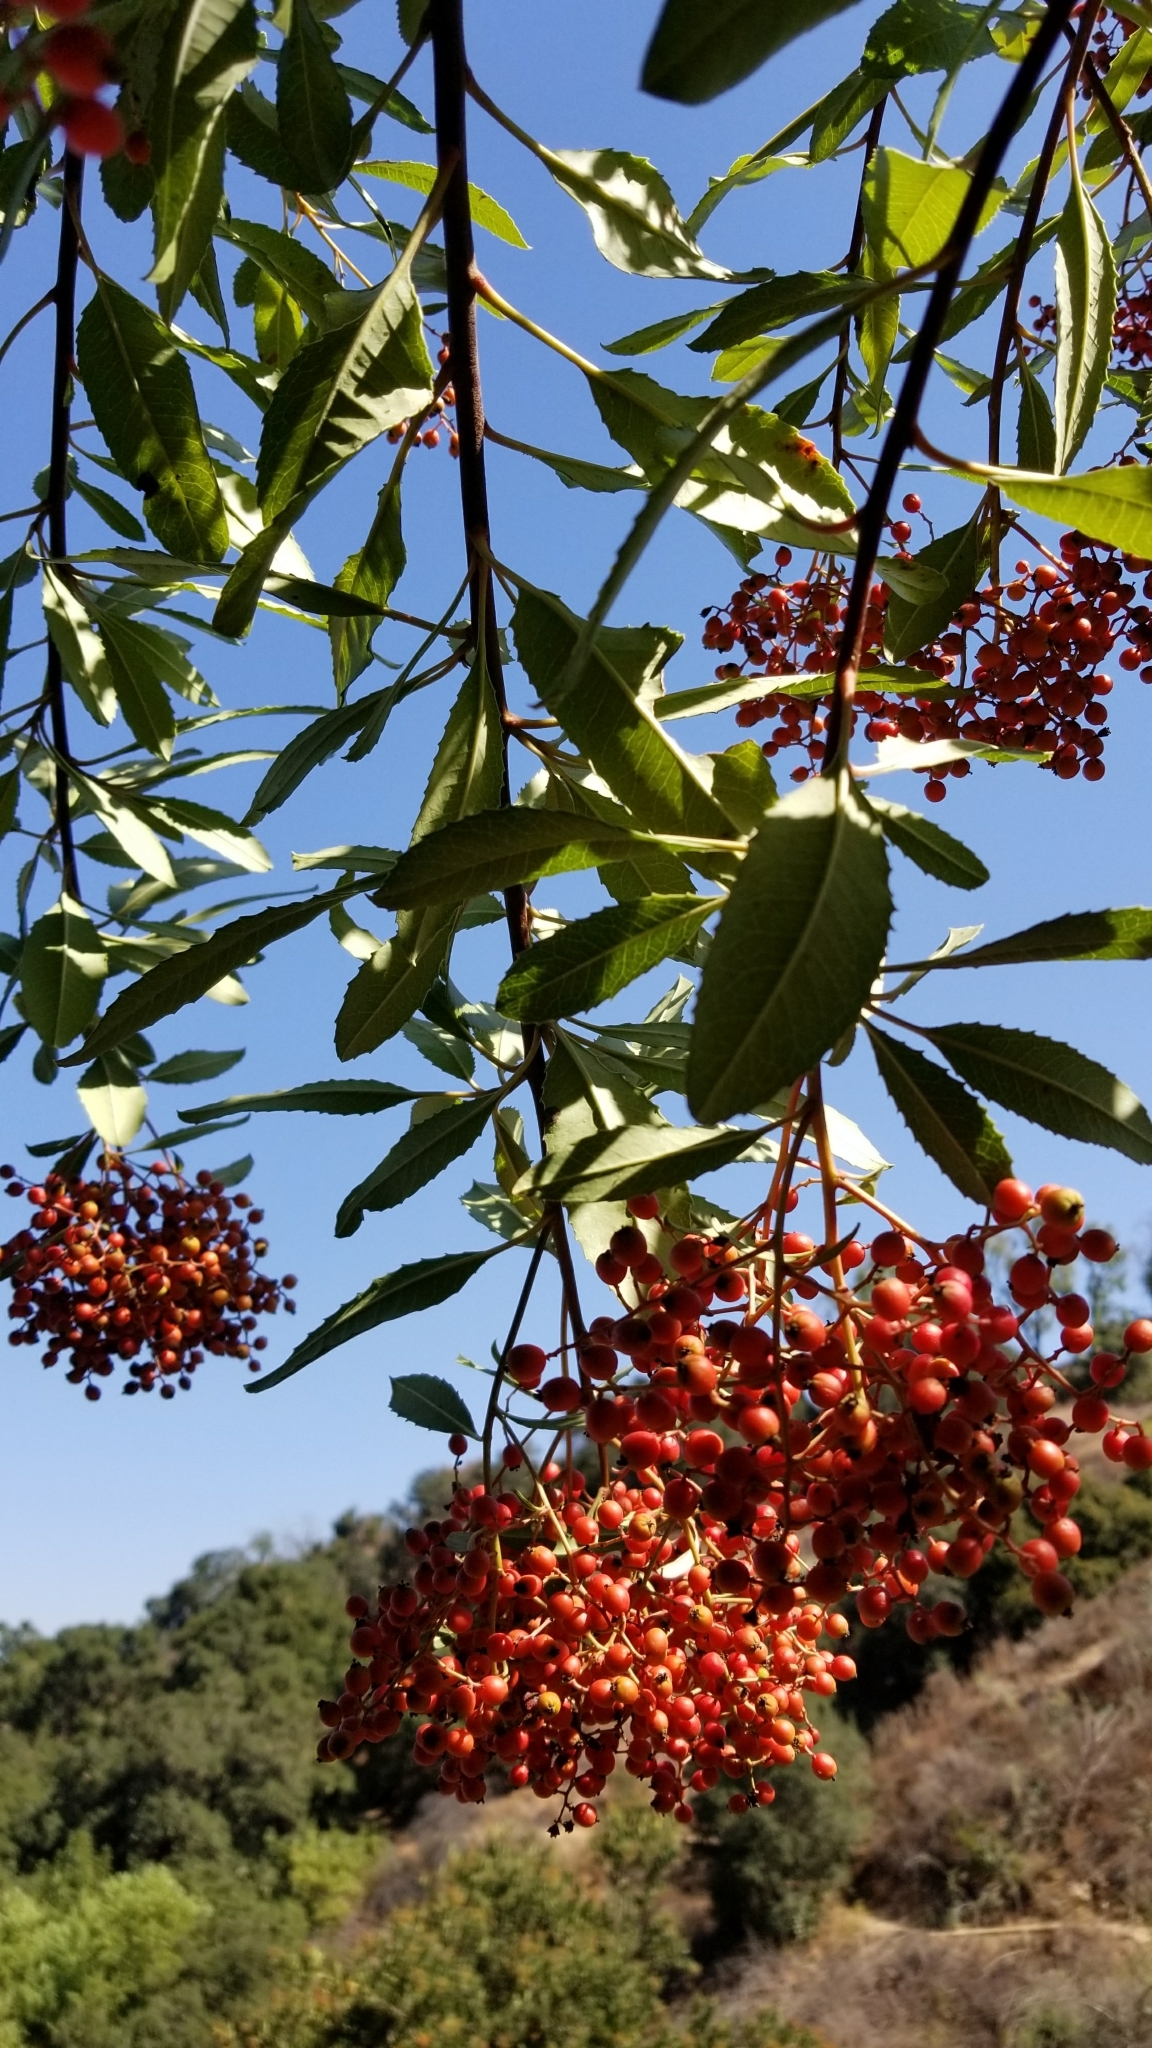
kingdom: Plantae
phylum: Tracheophyta
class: Magnoliopsida
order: Rosales
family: Rosaceae
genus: Heteromeles
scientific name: Heteromeles arbutifolia
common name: California-holly
